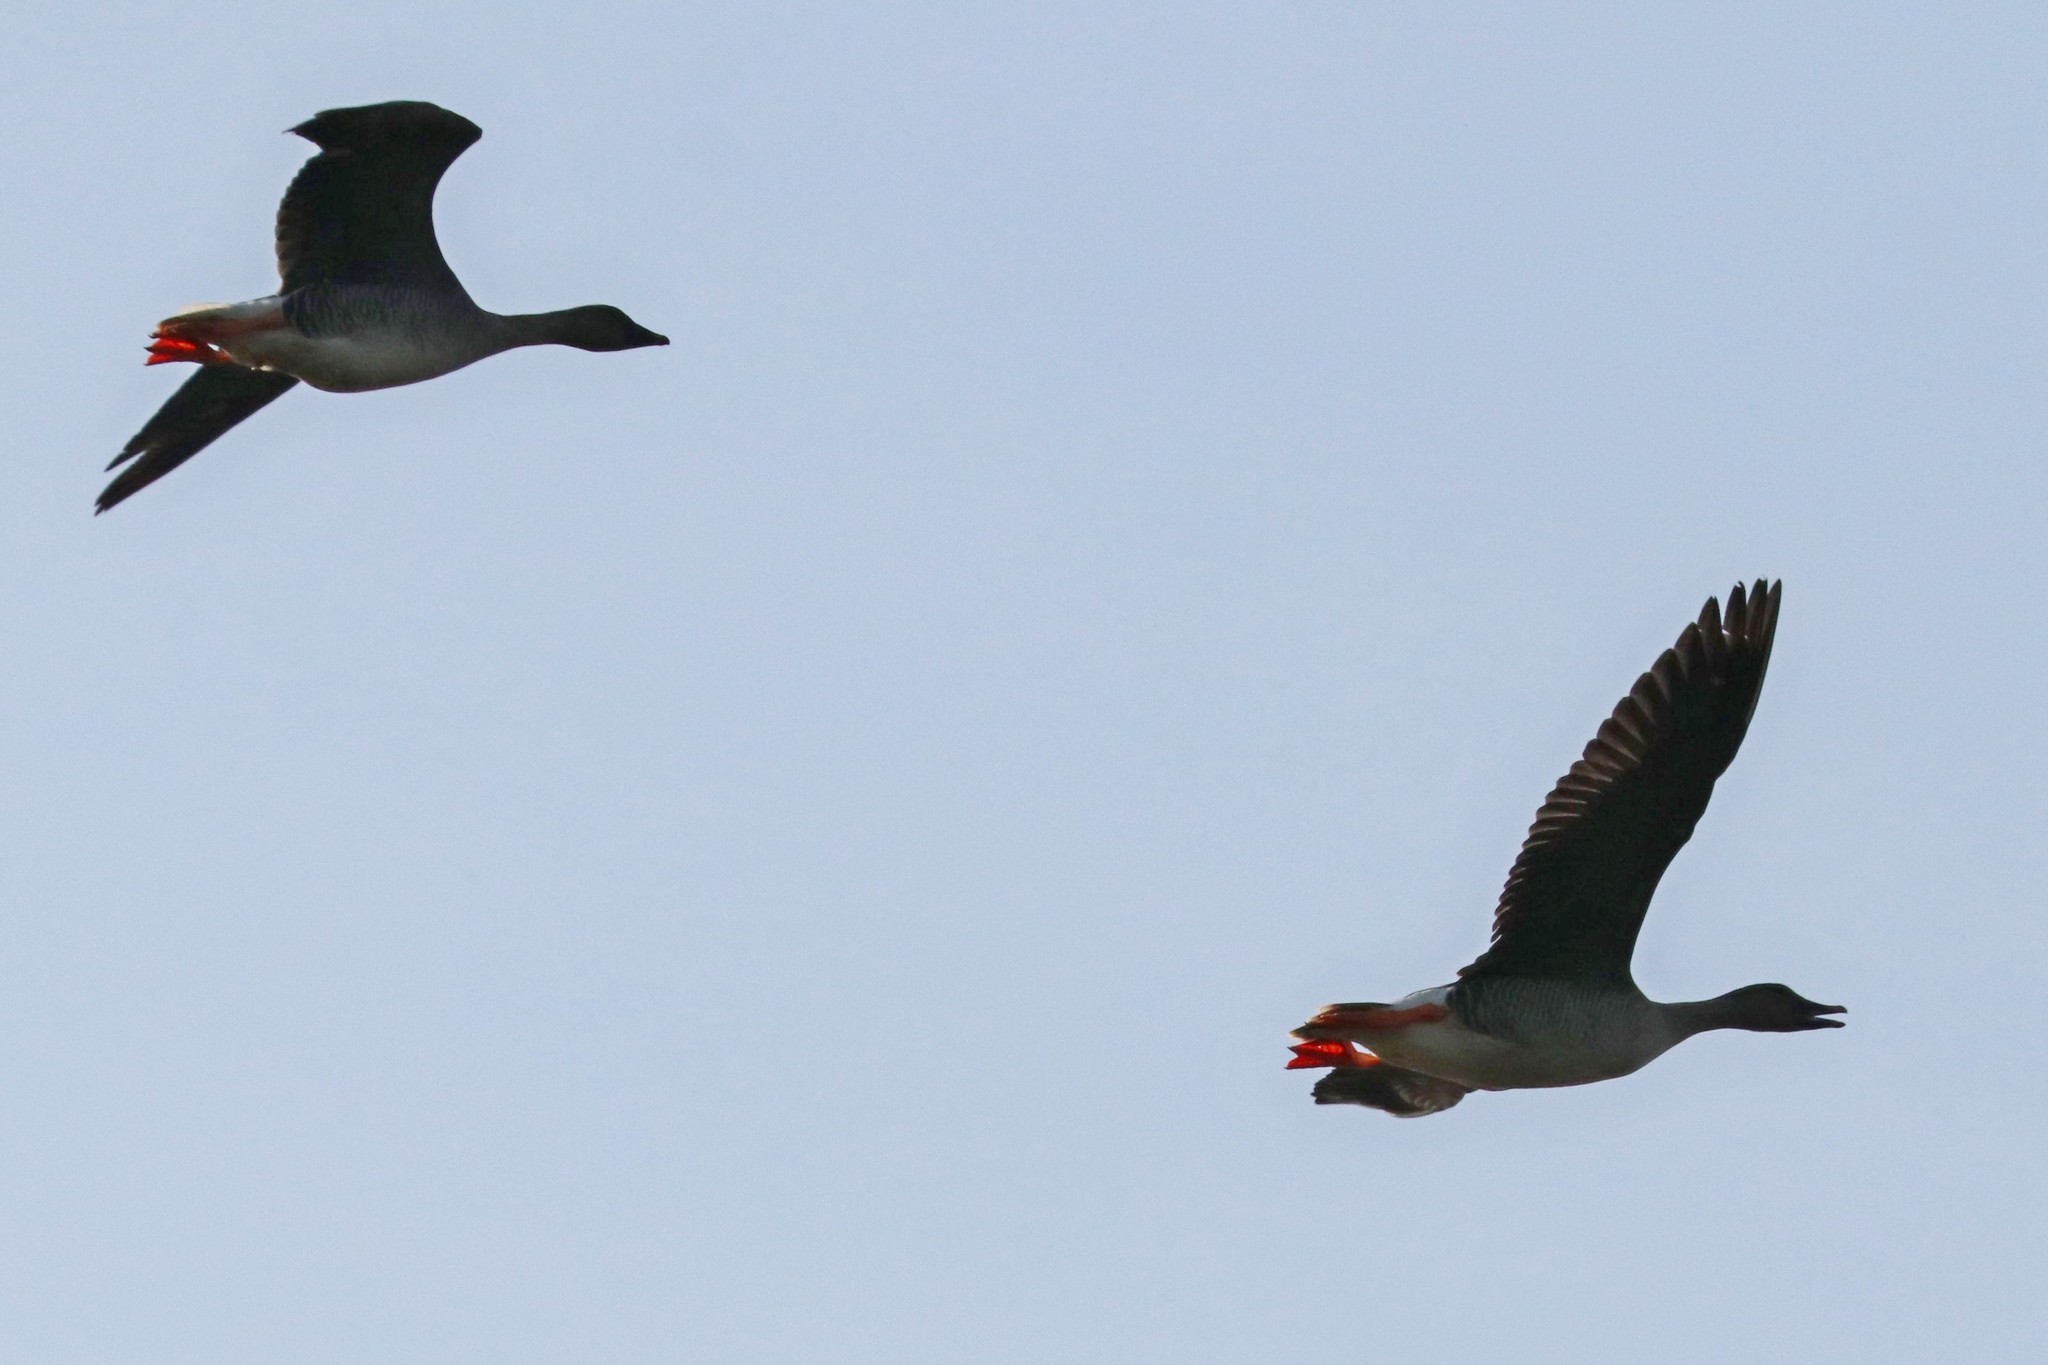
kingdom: Animalia
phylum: Chordata
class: Aves
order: Anseriformes
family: Anatidae
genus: Anser
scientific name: Anser fabalis
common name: Bean goose
